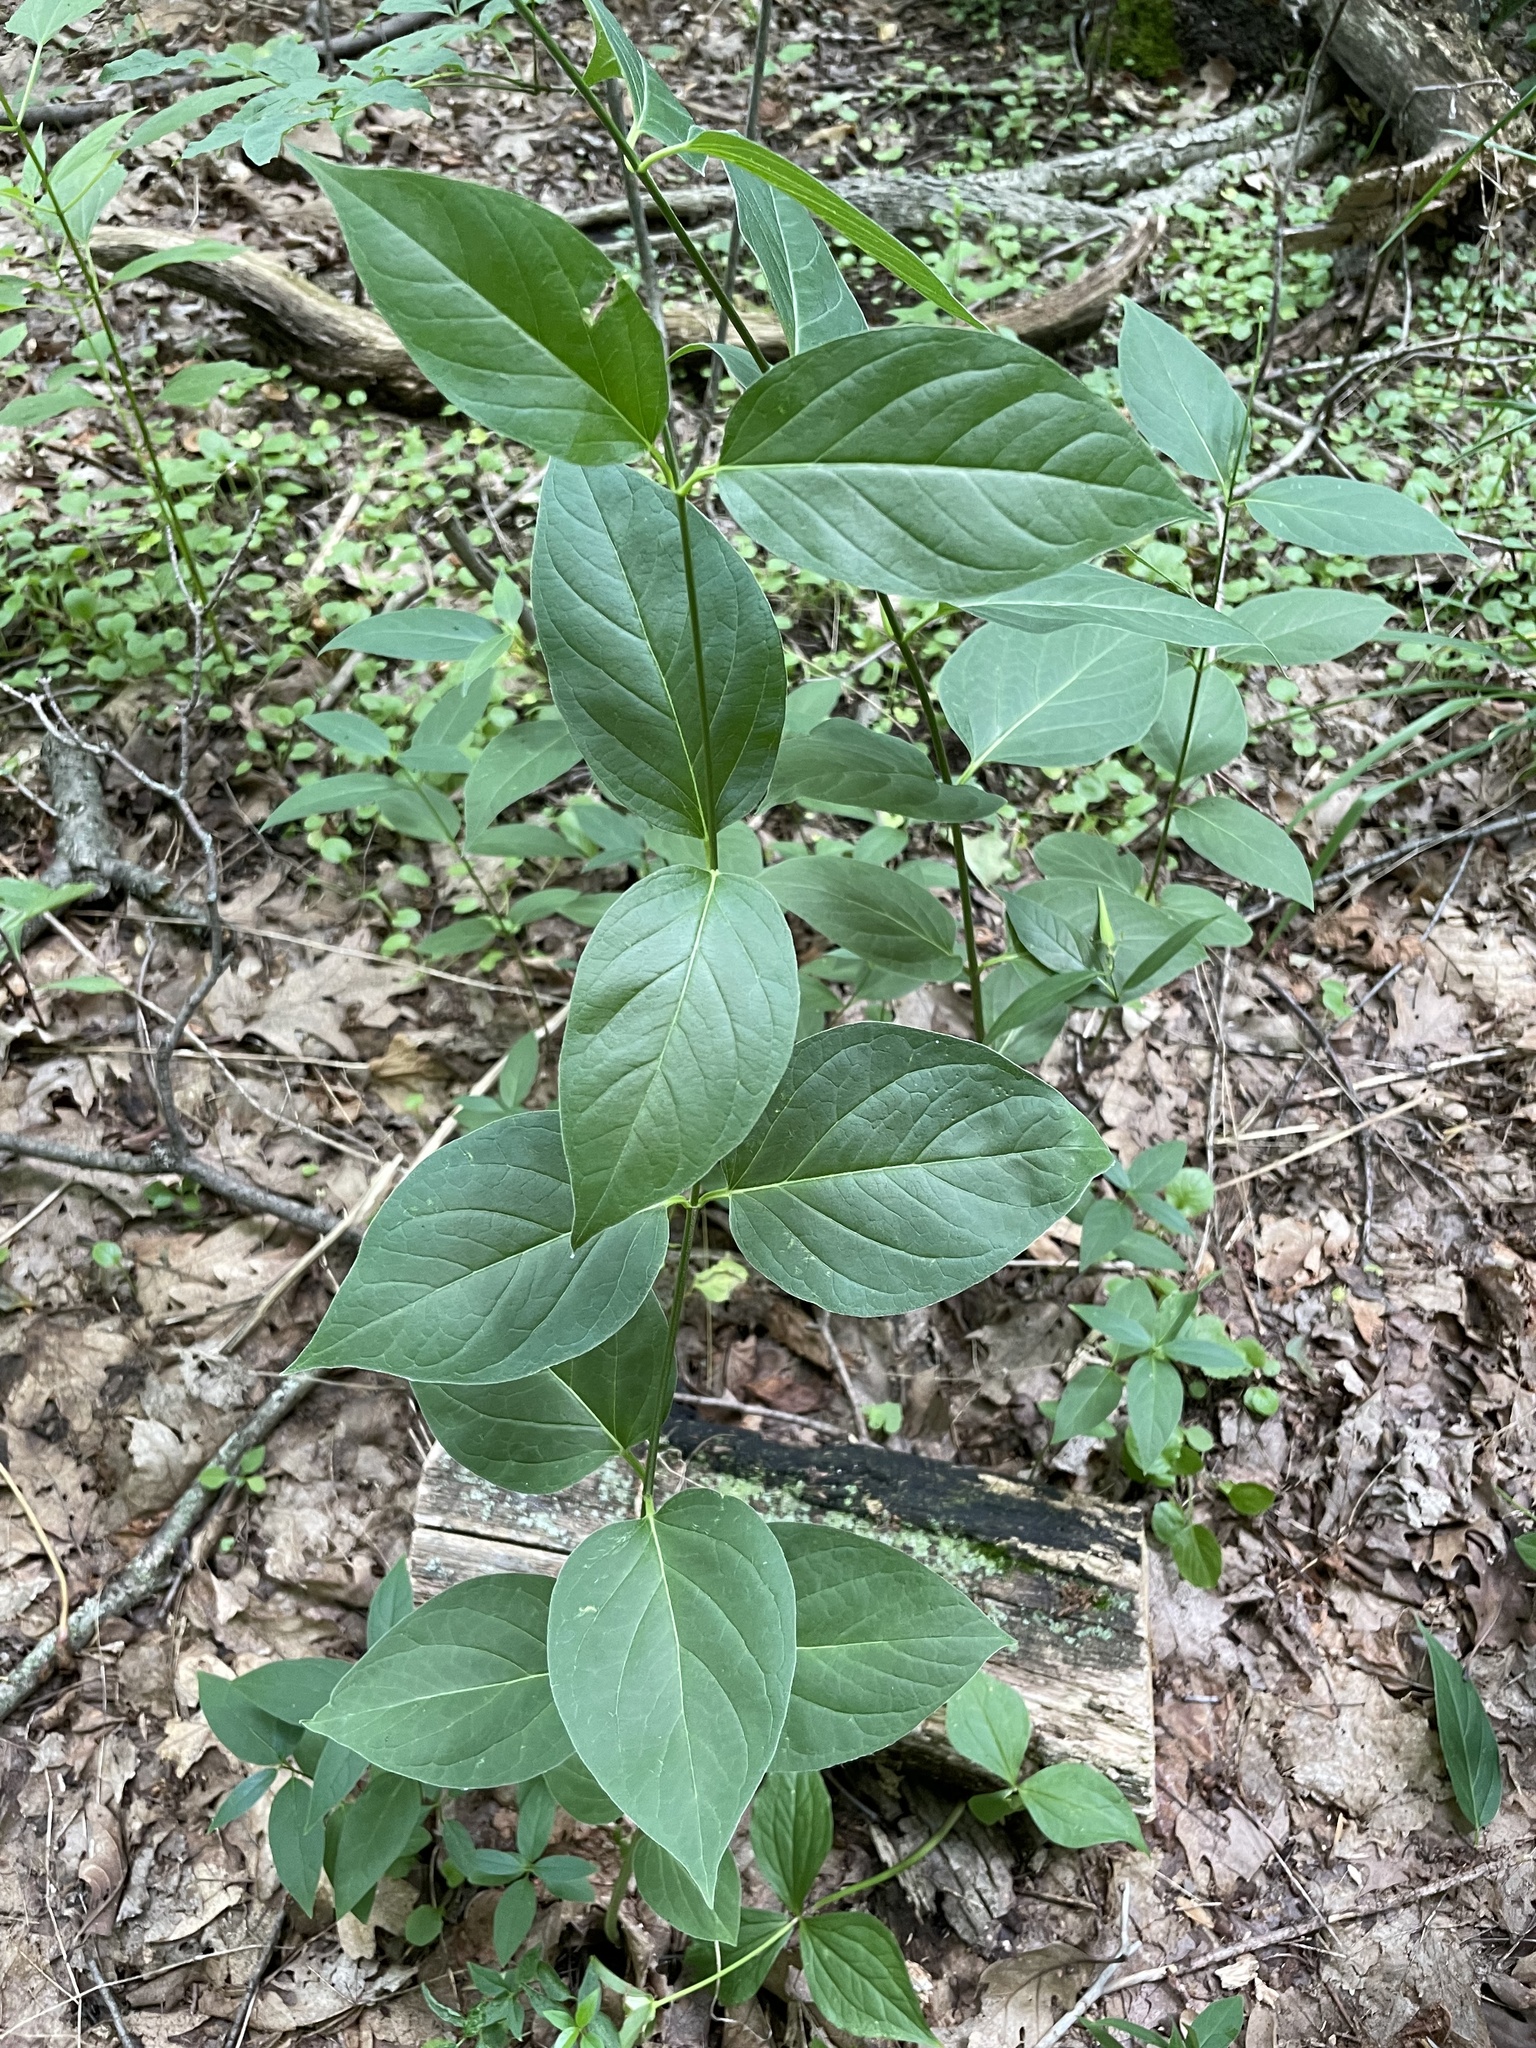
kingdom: Plantae
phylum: Tracheophyta
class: Magnoliopsida
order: Gentianales
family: Apocynaceae
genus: Vincetoxicum
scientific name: Vincetoxicum rossicum
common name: Dog-strangling vine
